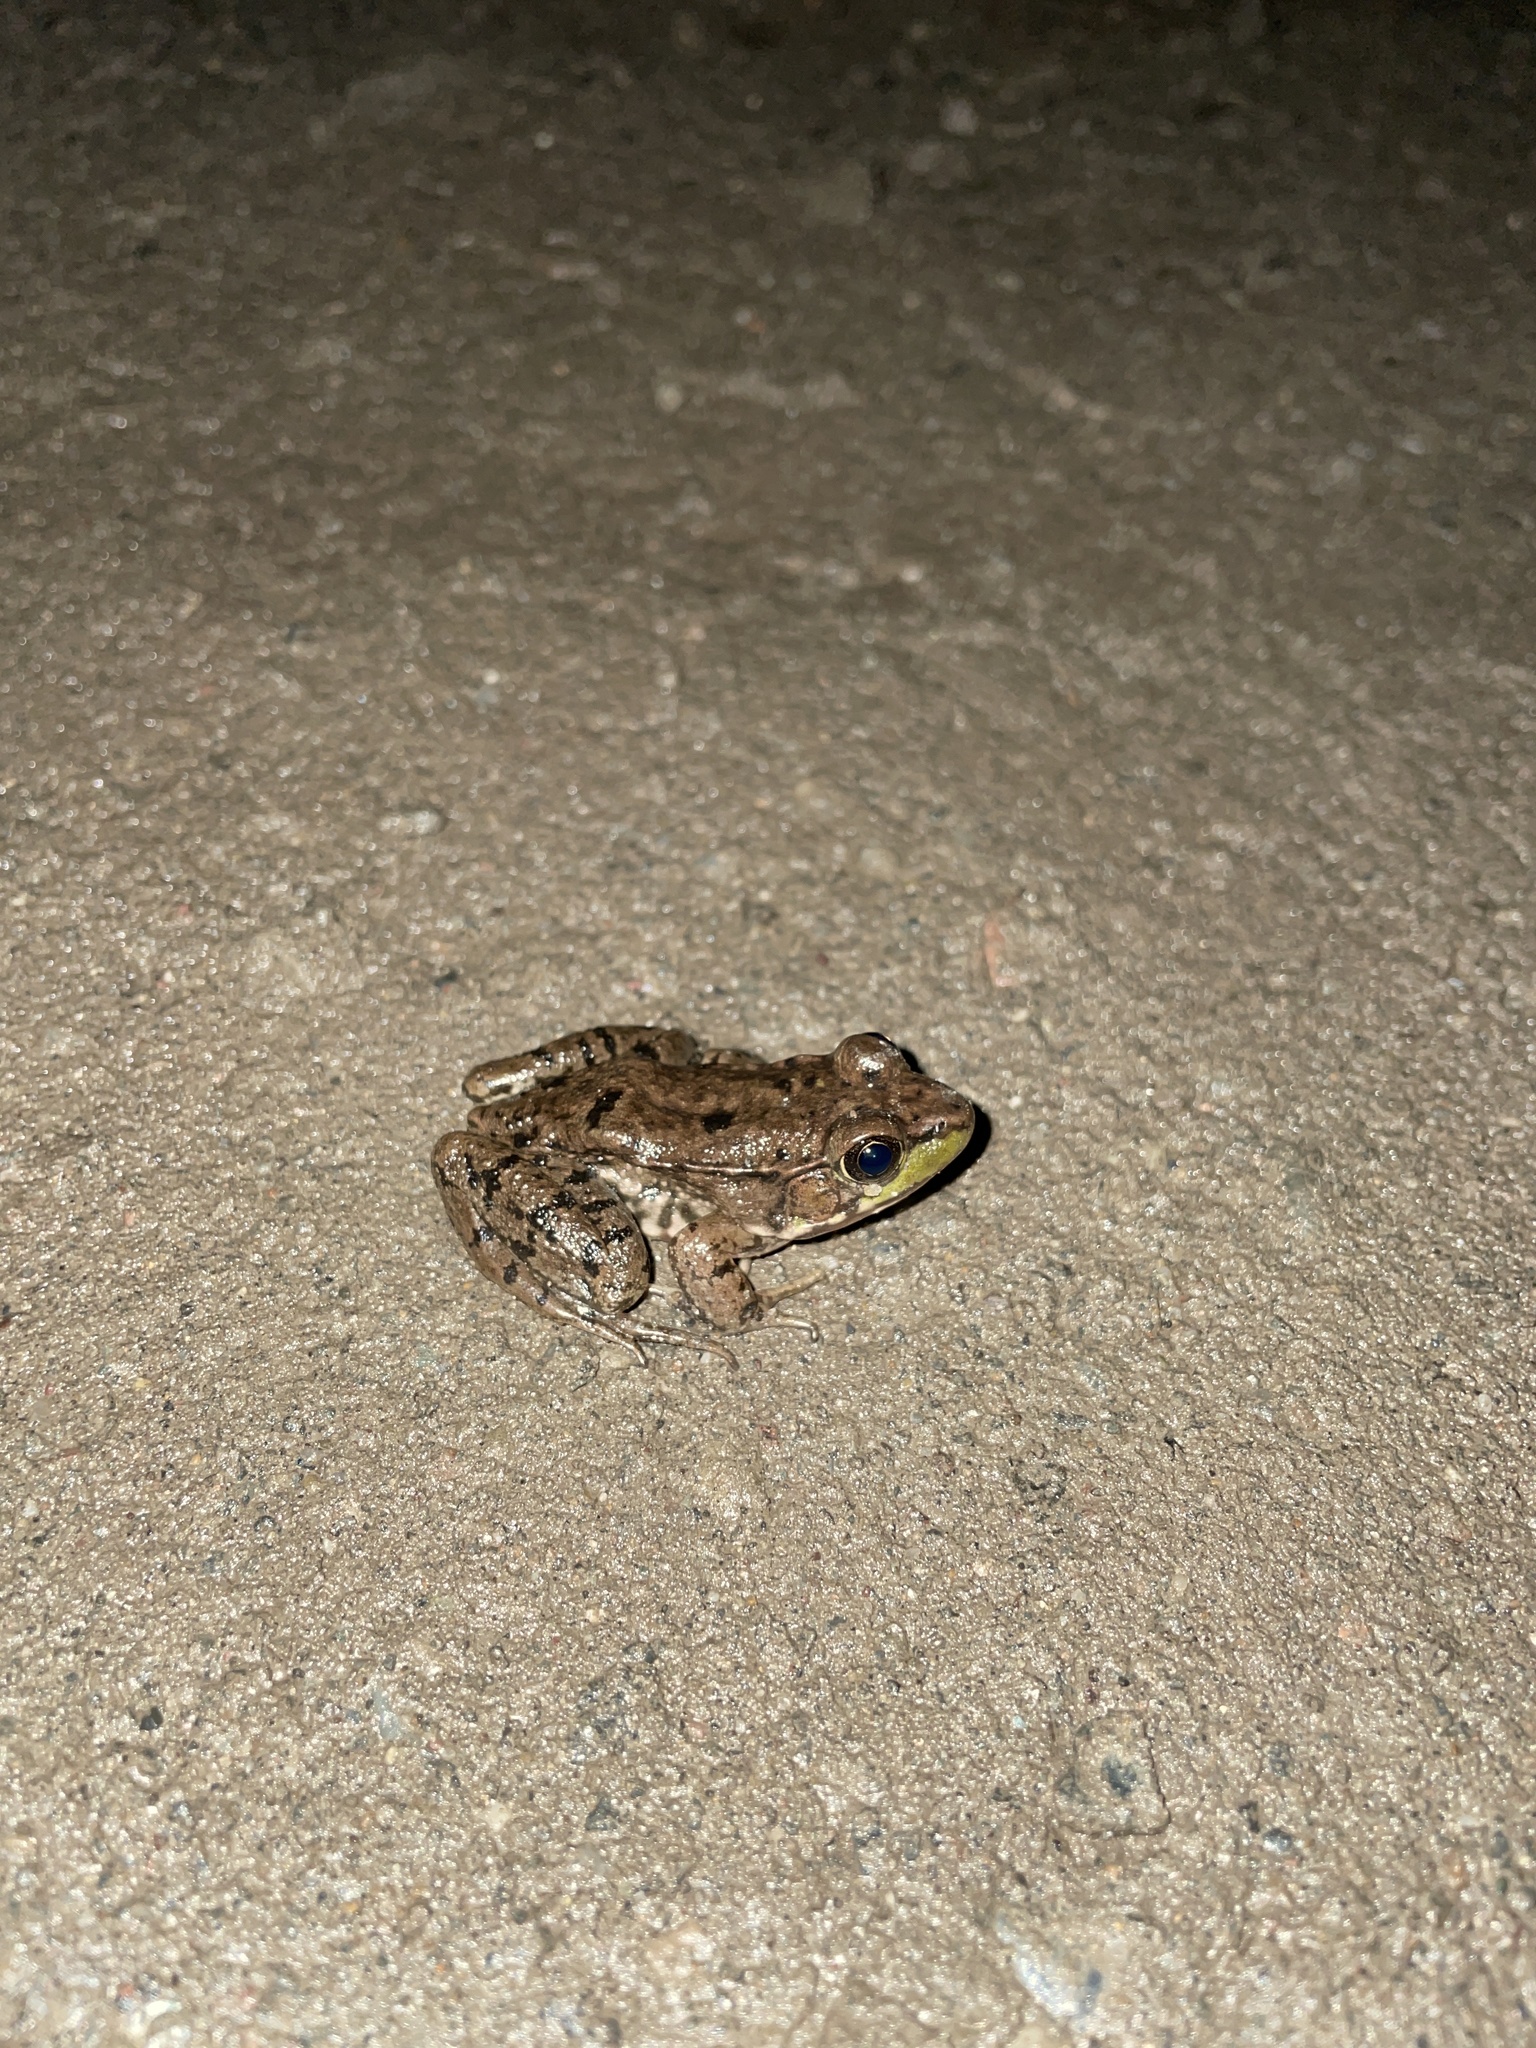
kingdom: Animalia
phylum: Chordata
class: Amphibia
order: Anura
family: Ranidae
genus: Lithobates
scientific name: Lithobates clamitans
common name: Green frog
